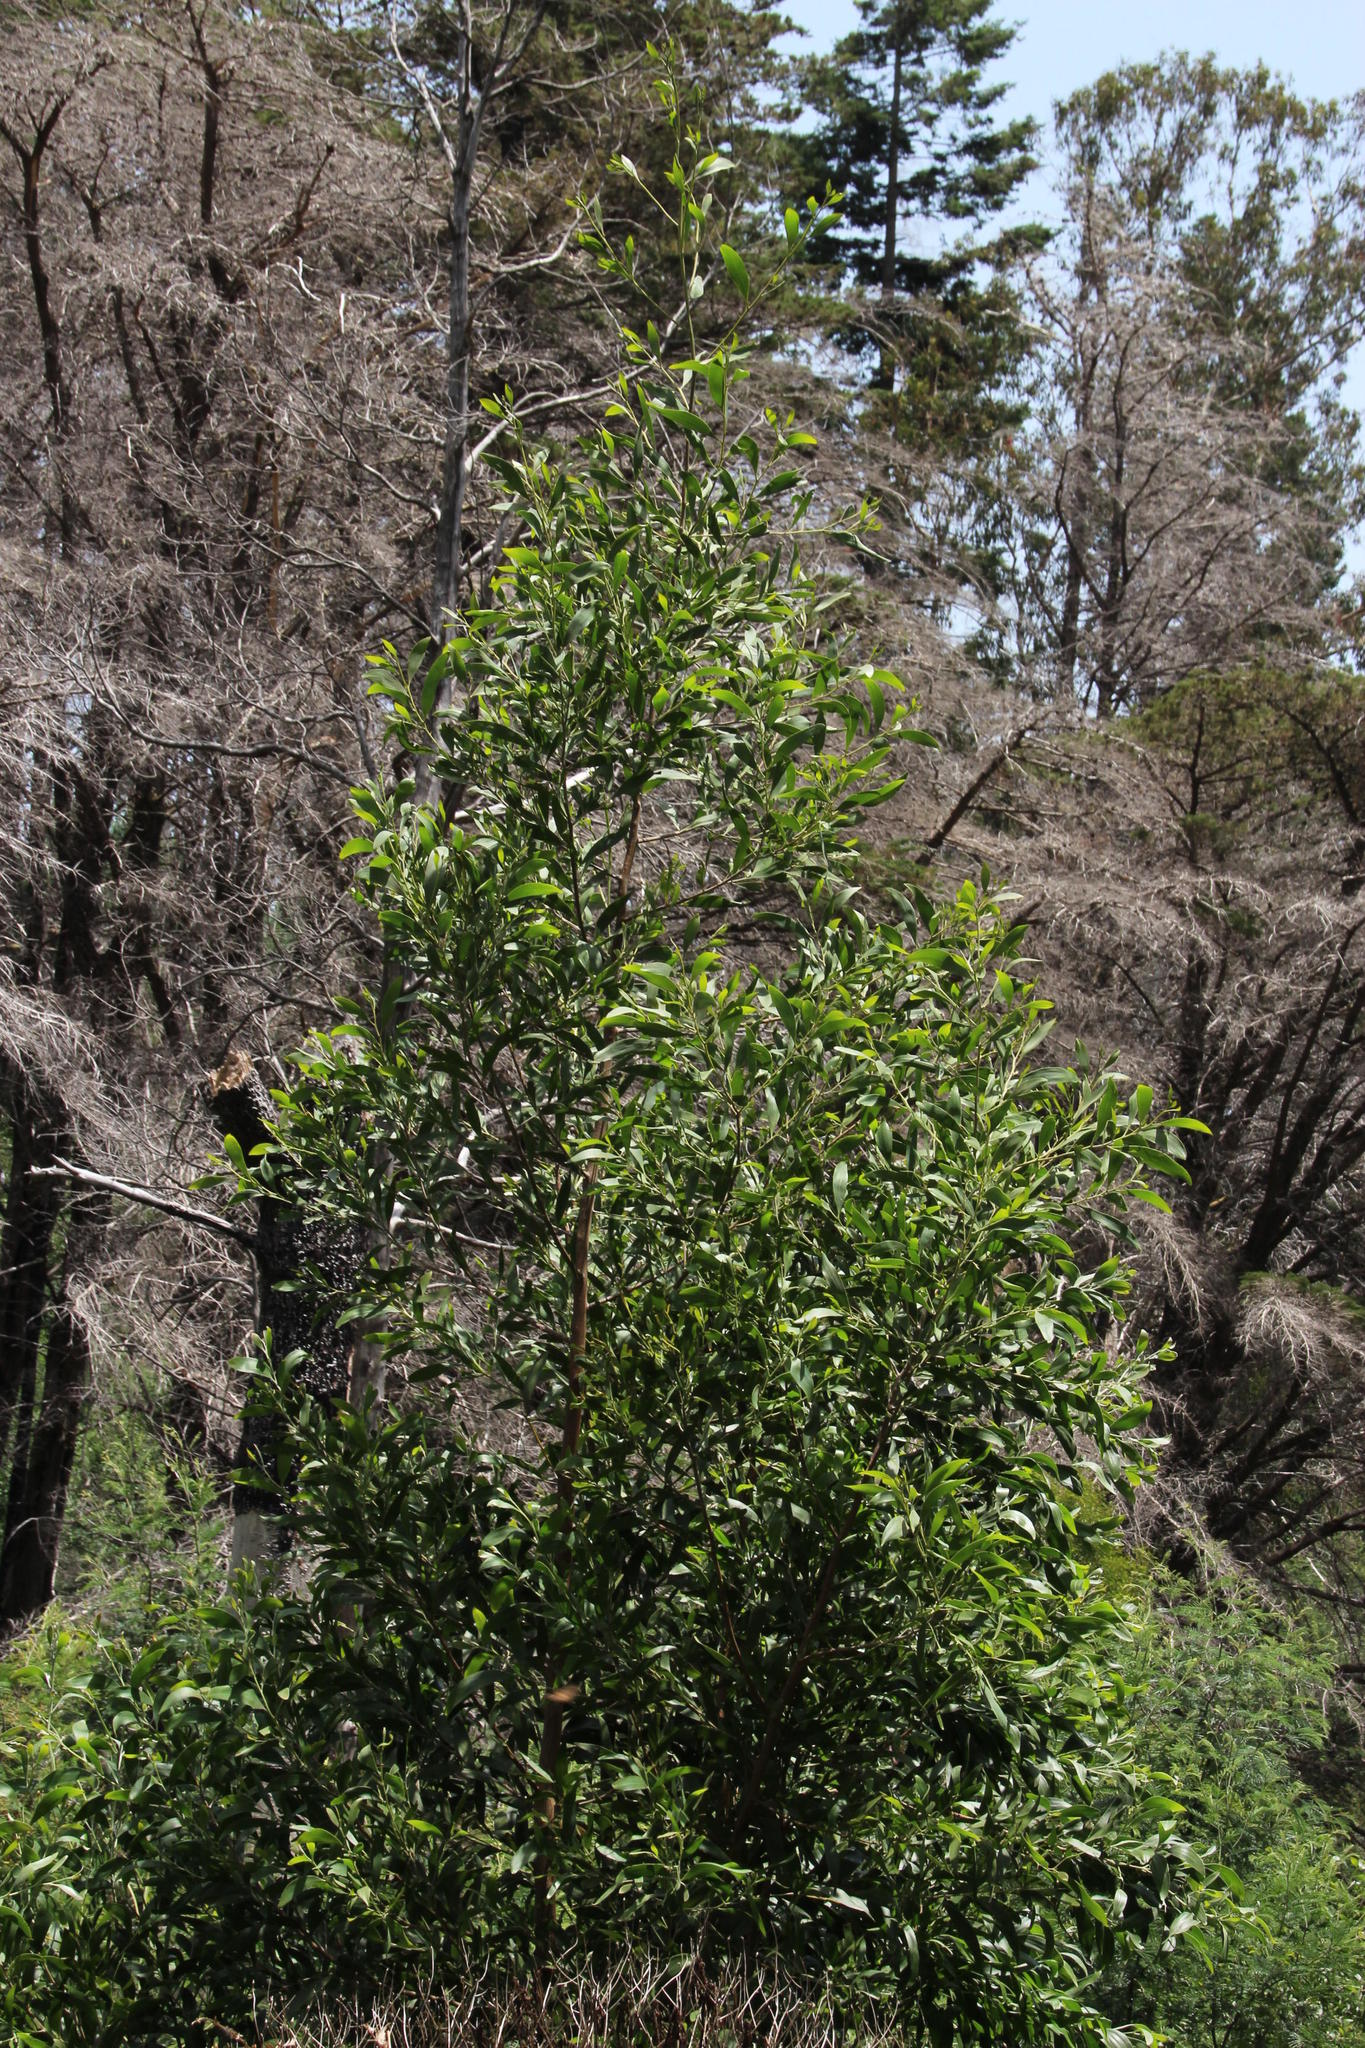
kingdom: Plantae
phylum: Tracheophyta
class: Magnoliopsida
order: Fabales
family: Fabaceae
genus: Acacia
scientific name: Acacia melanoxylon
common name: Blackwood
